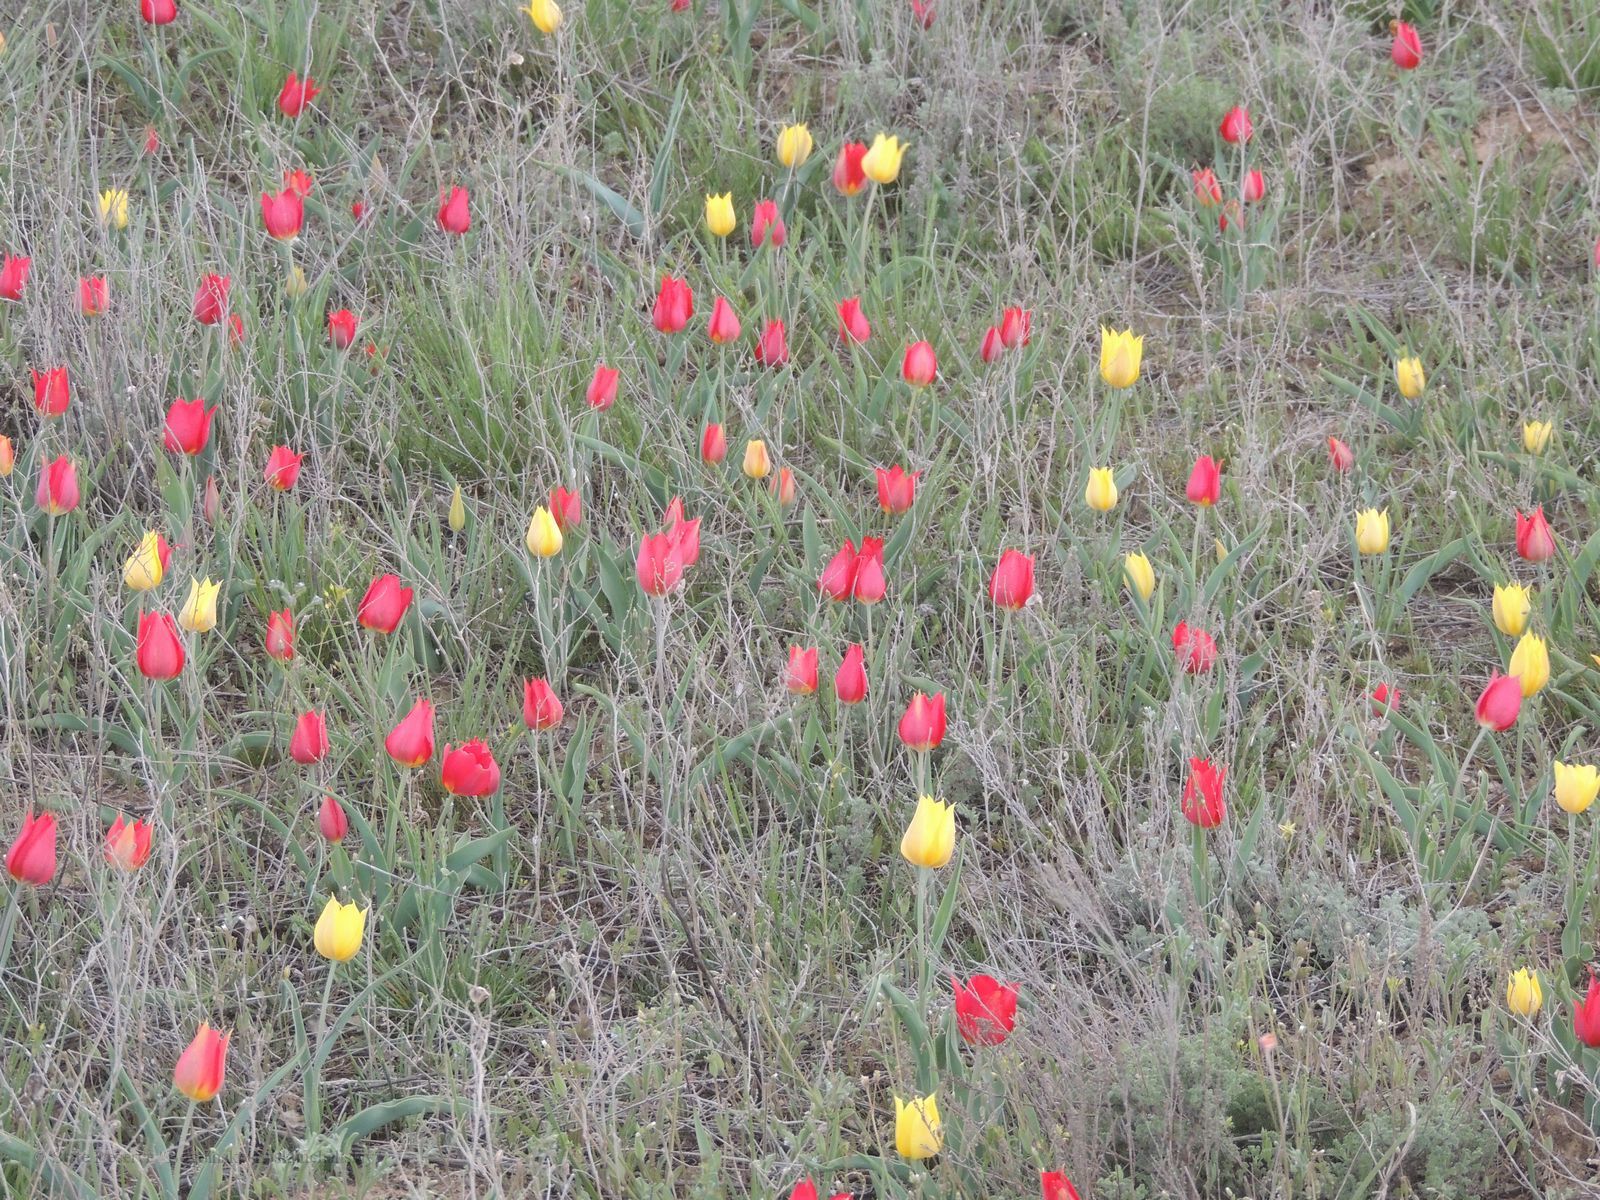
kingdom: Plantae
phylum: Tracheophyta
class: Liliopsida
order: Liliales
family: Liliaceae
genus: Tulipa
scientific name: Tulipa suaveolens
